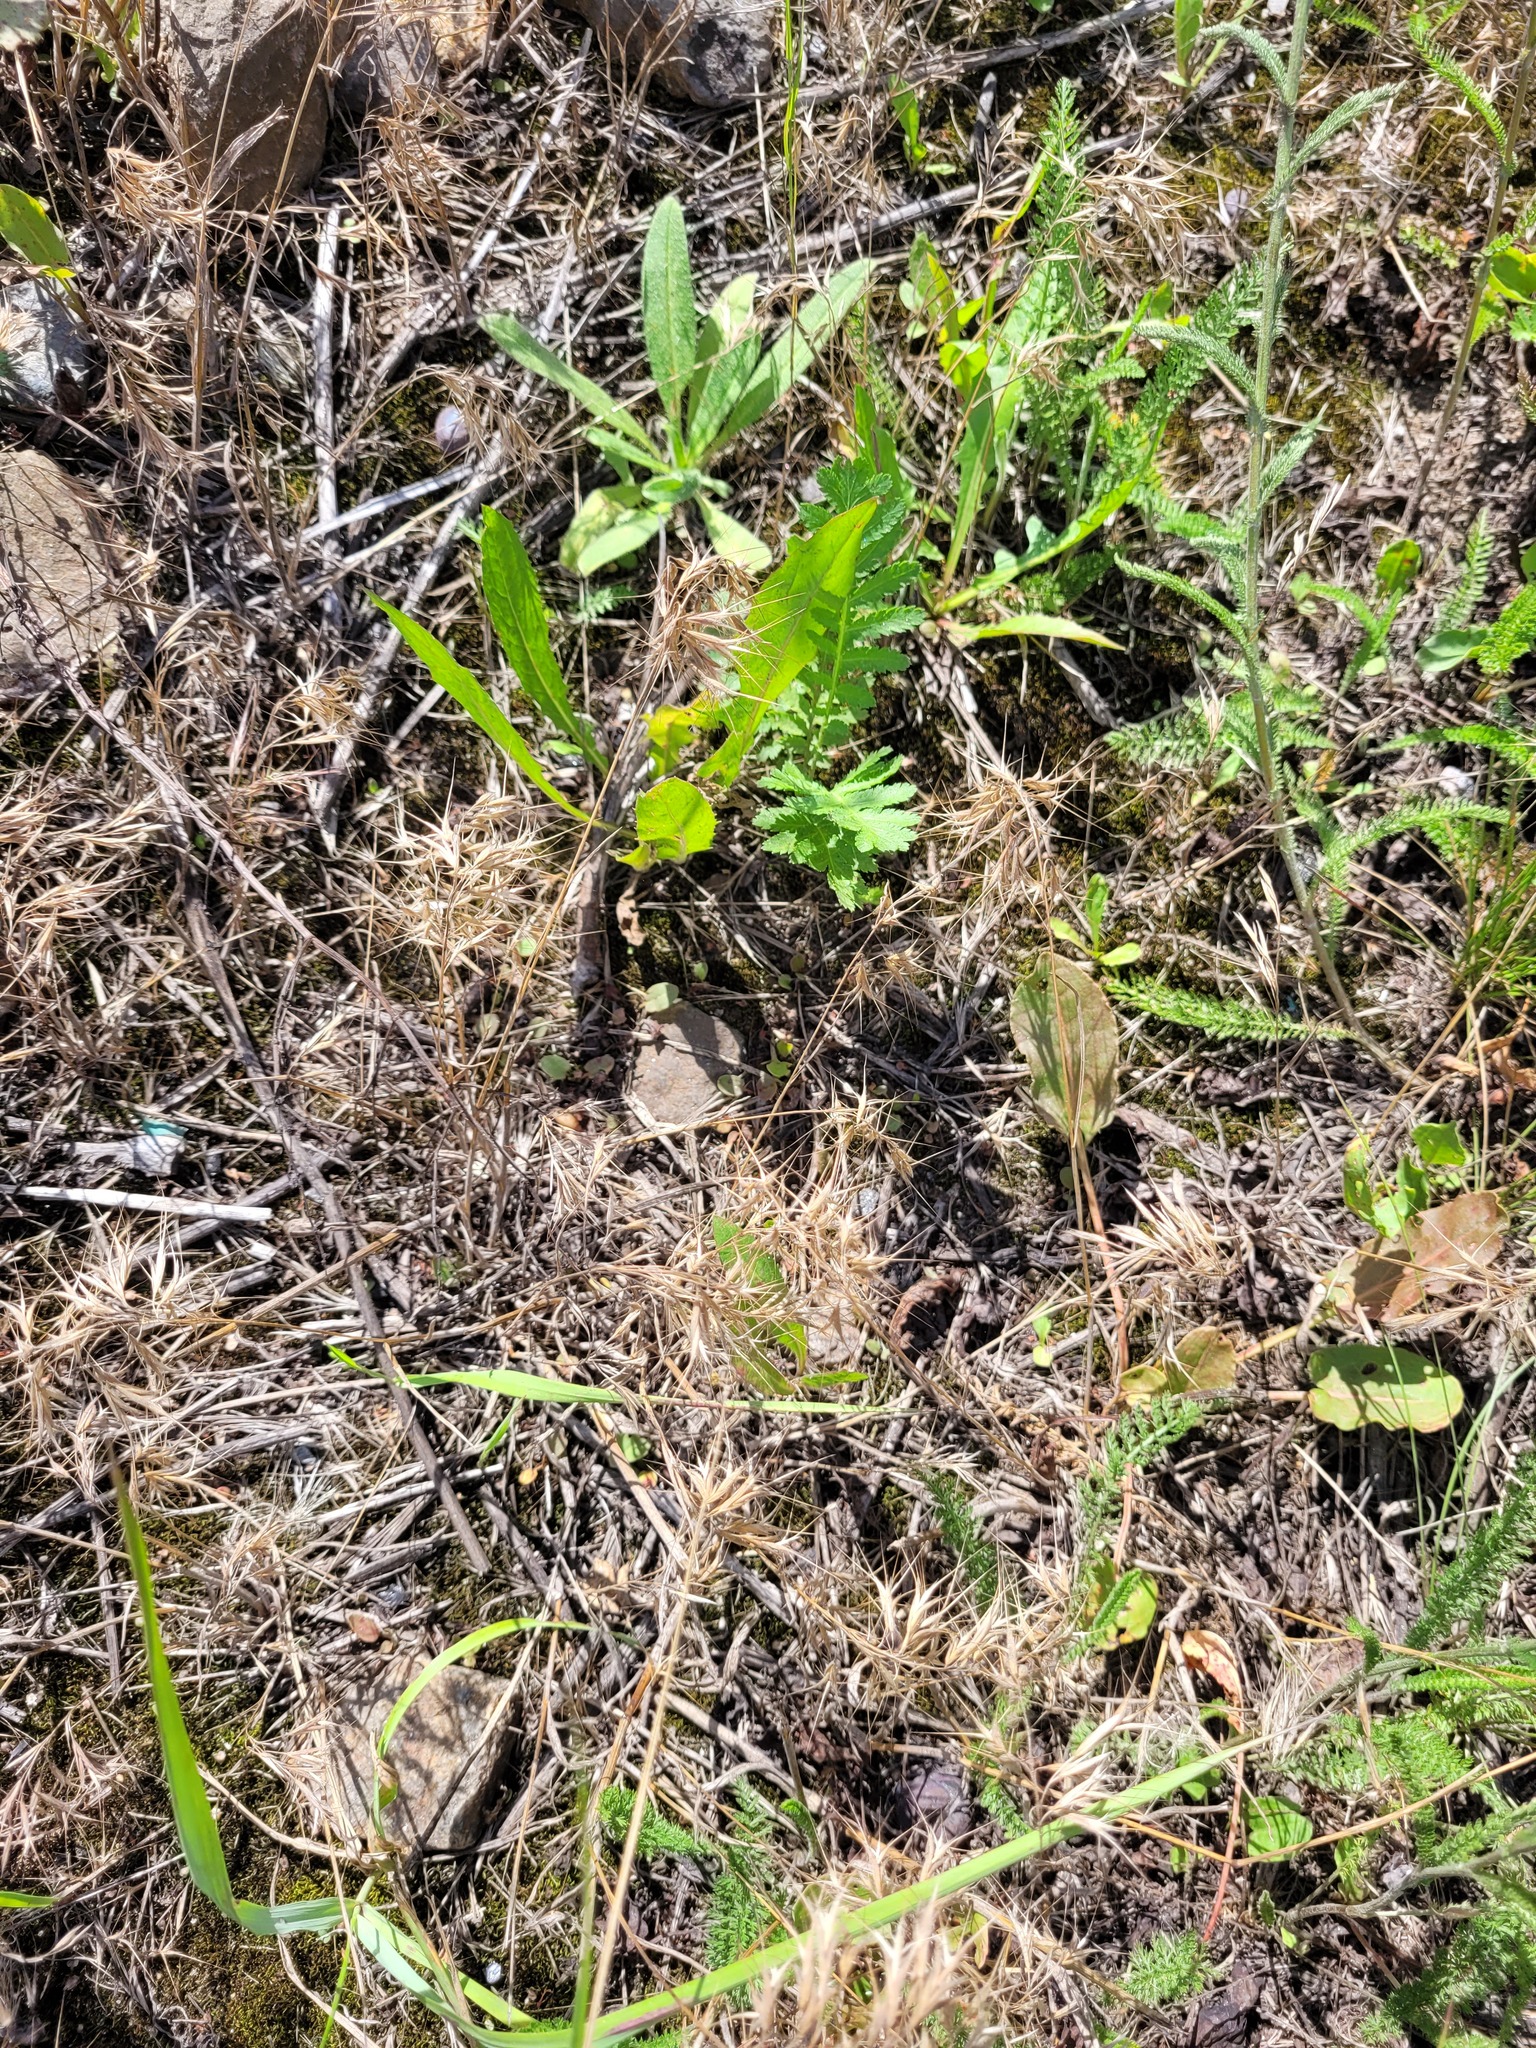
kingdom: Plantae
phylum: Tracheophyta
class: Liliopsida
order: Poales
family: Poaceae
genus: Bromus
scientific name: Bromus tectorum
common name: Cheatgrass
